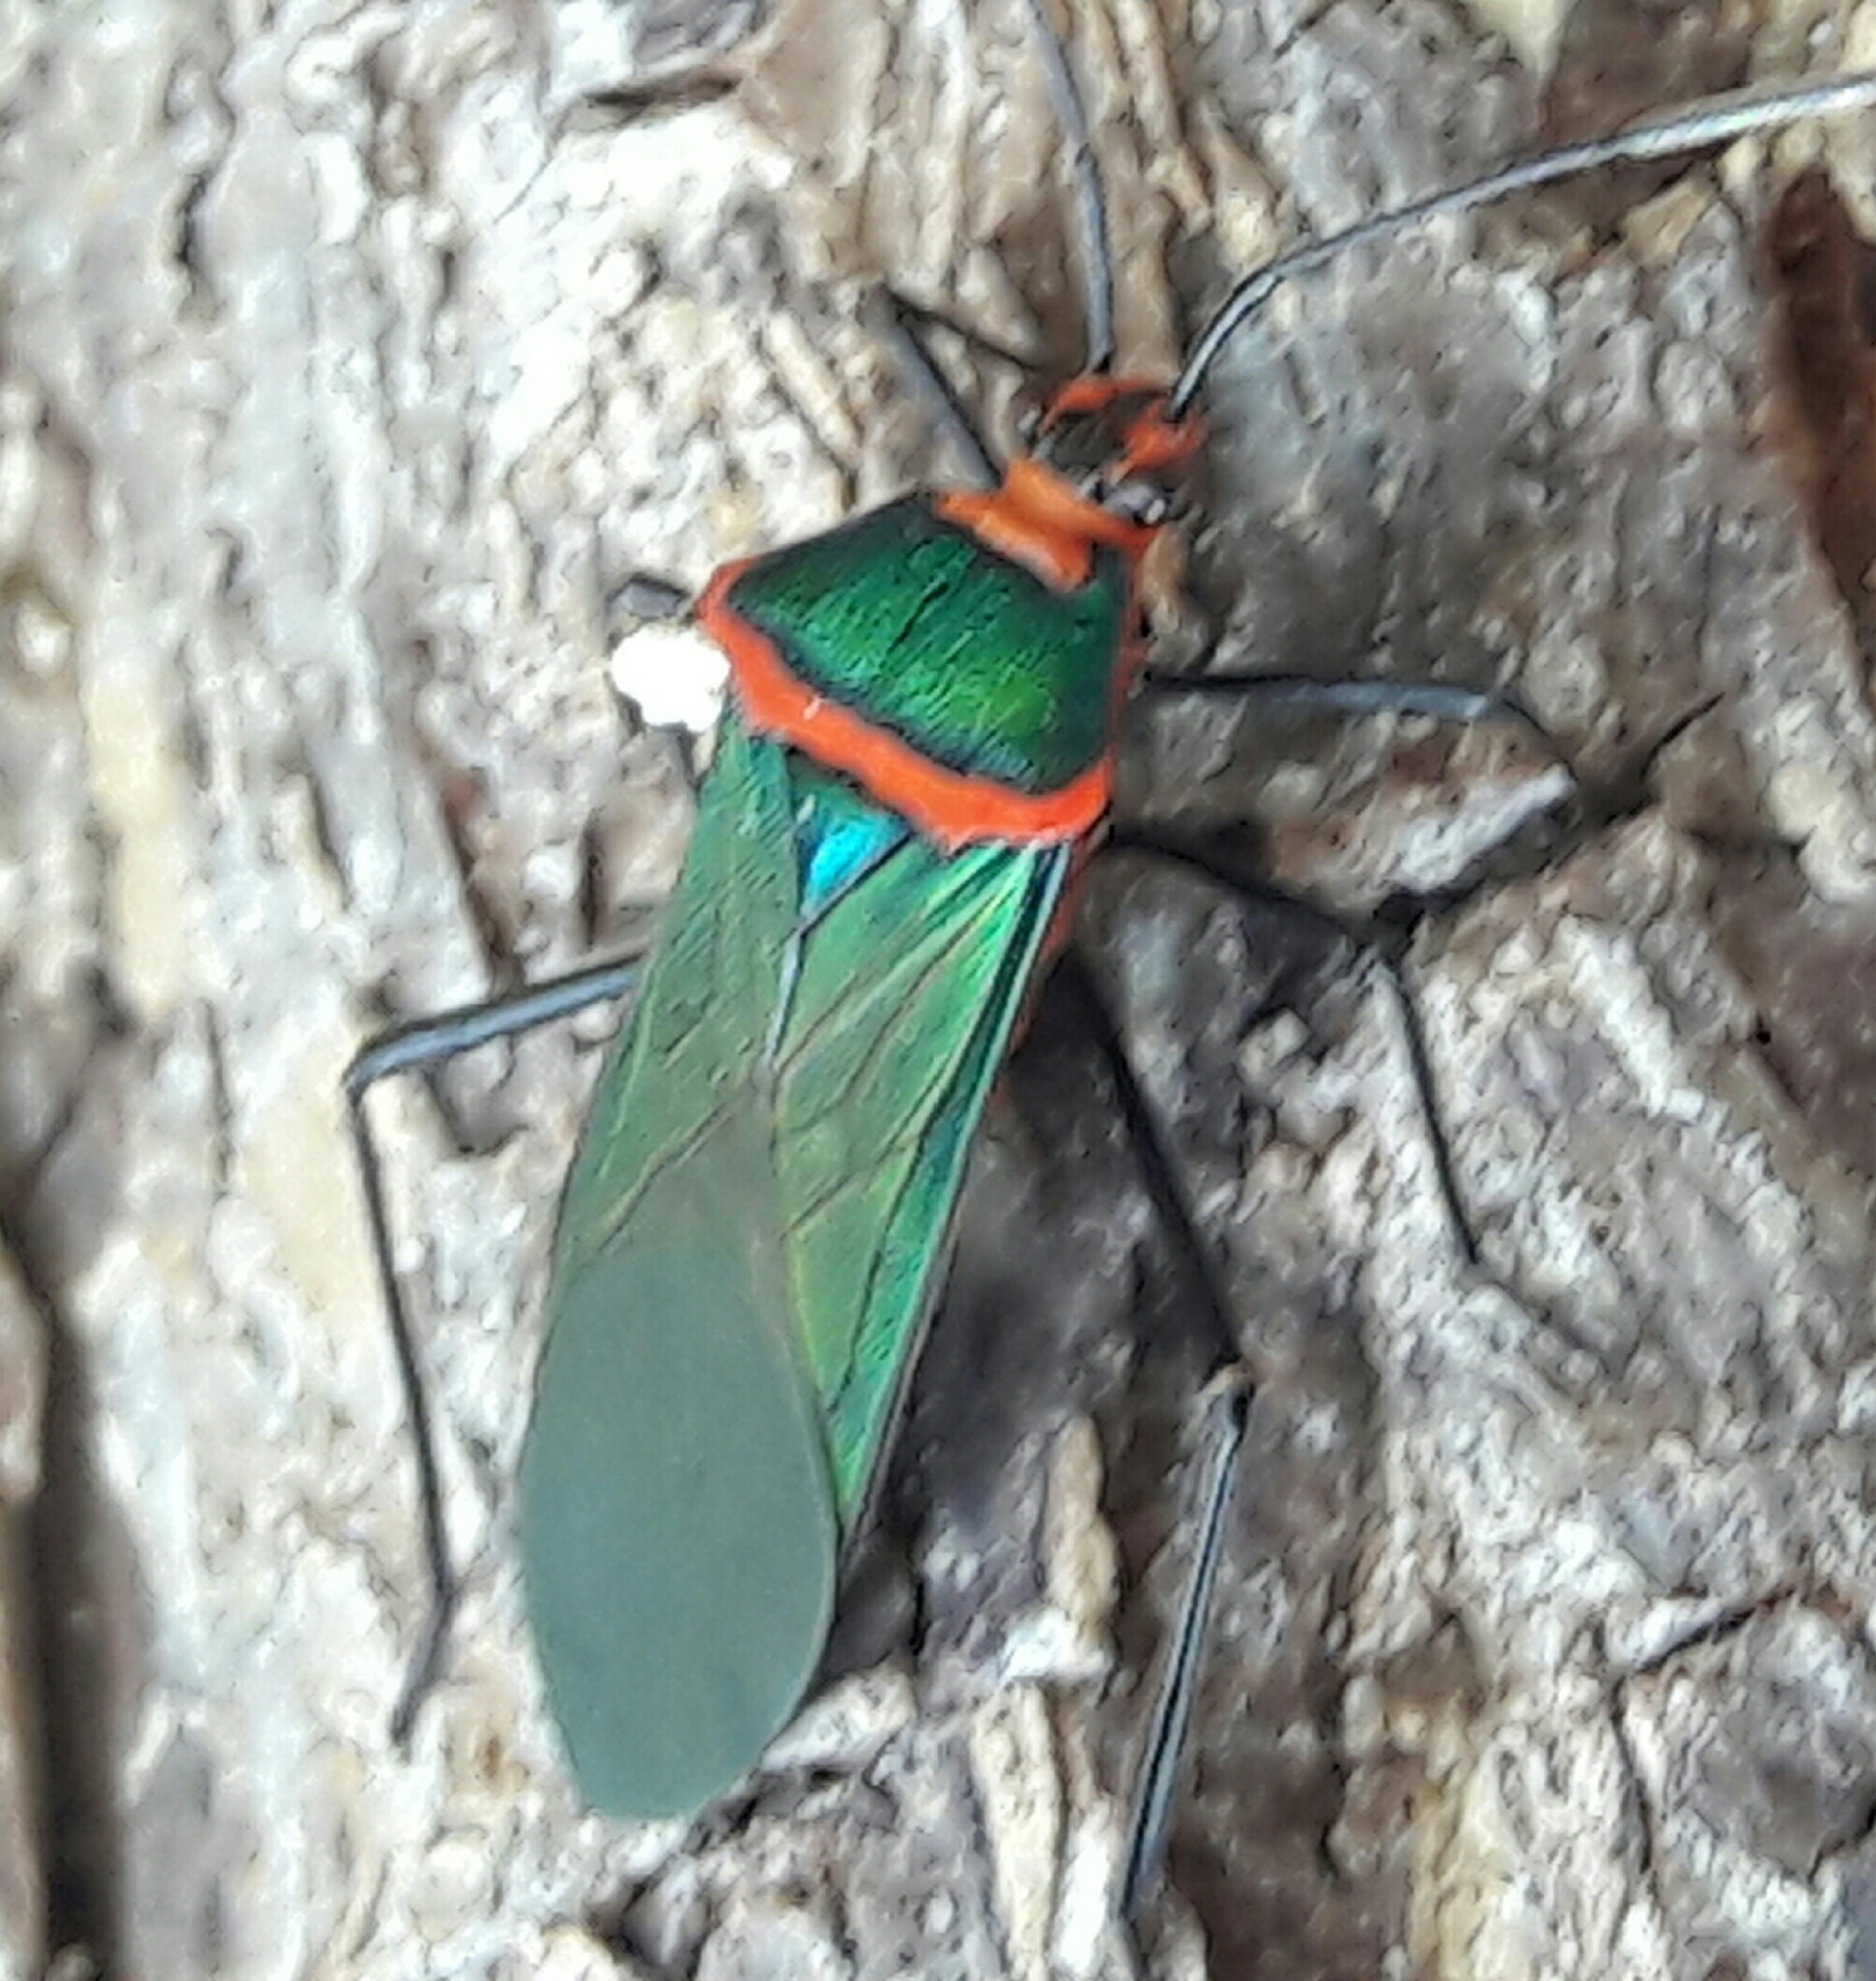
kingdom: Animalia
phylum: Arthropoda
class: Insecta
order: Hemiptera
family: Coreidae
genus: Sphictyrtus
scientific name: Sphictyrtus chrysis
